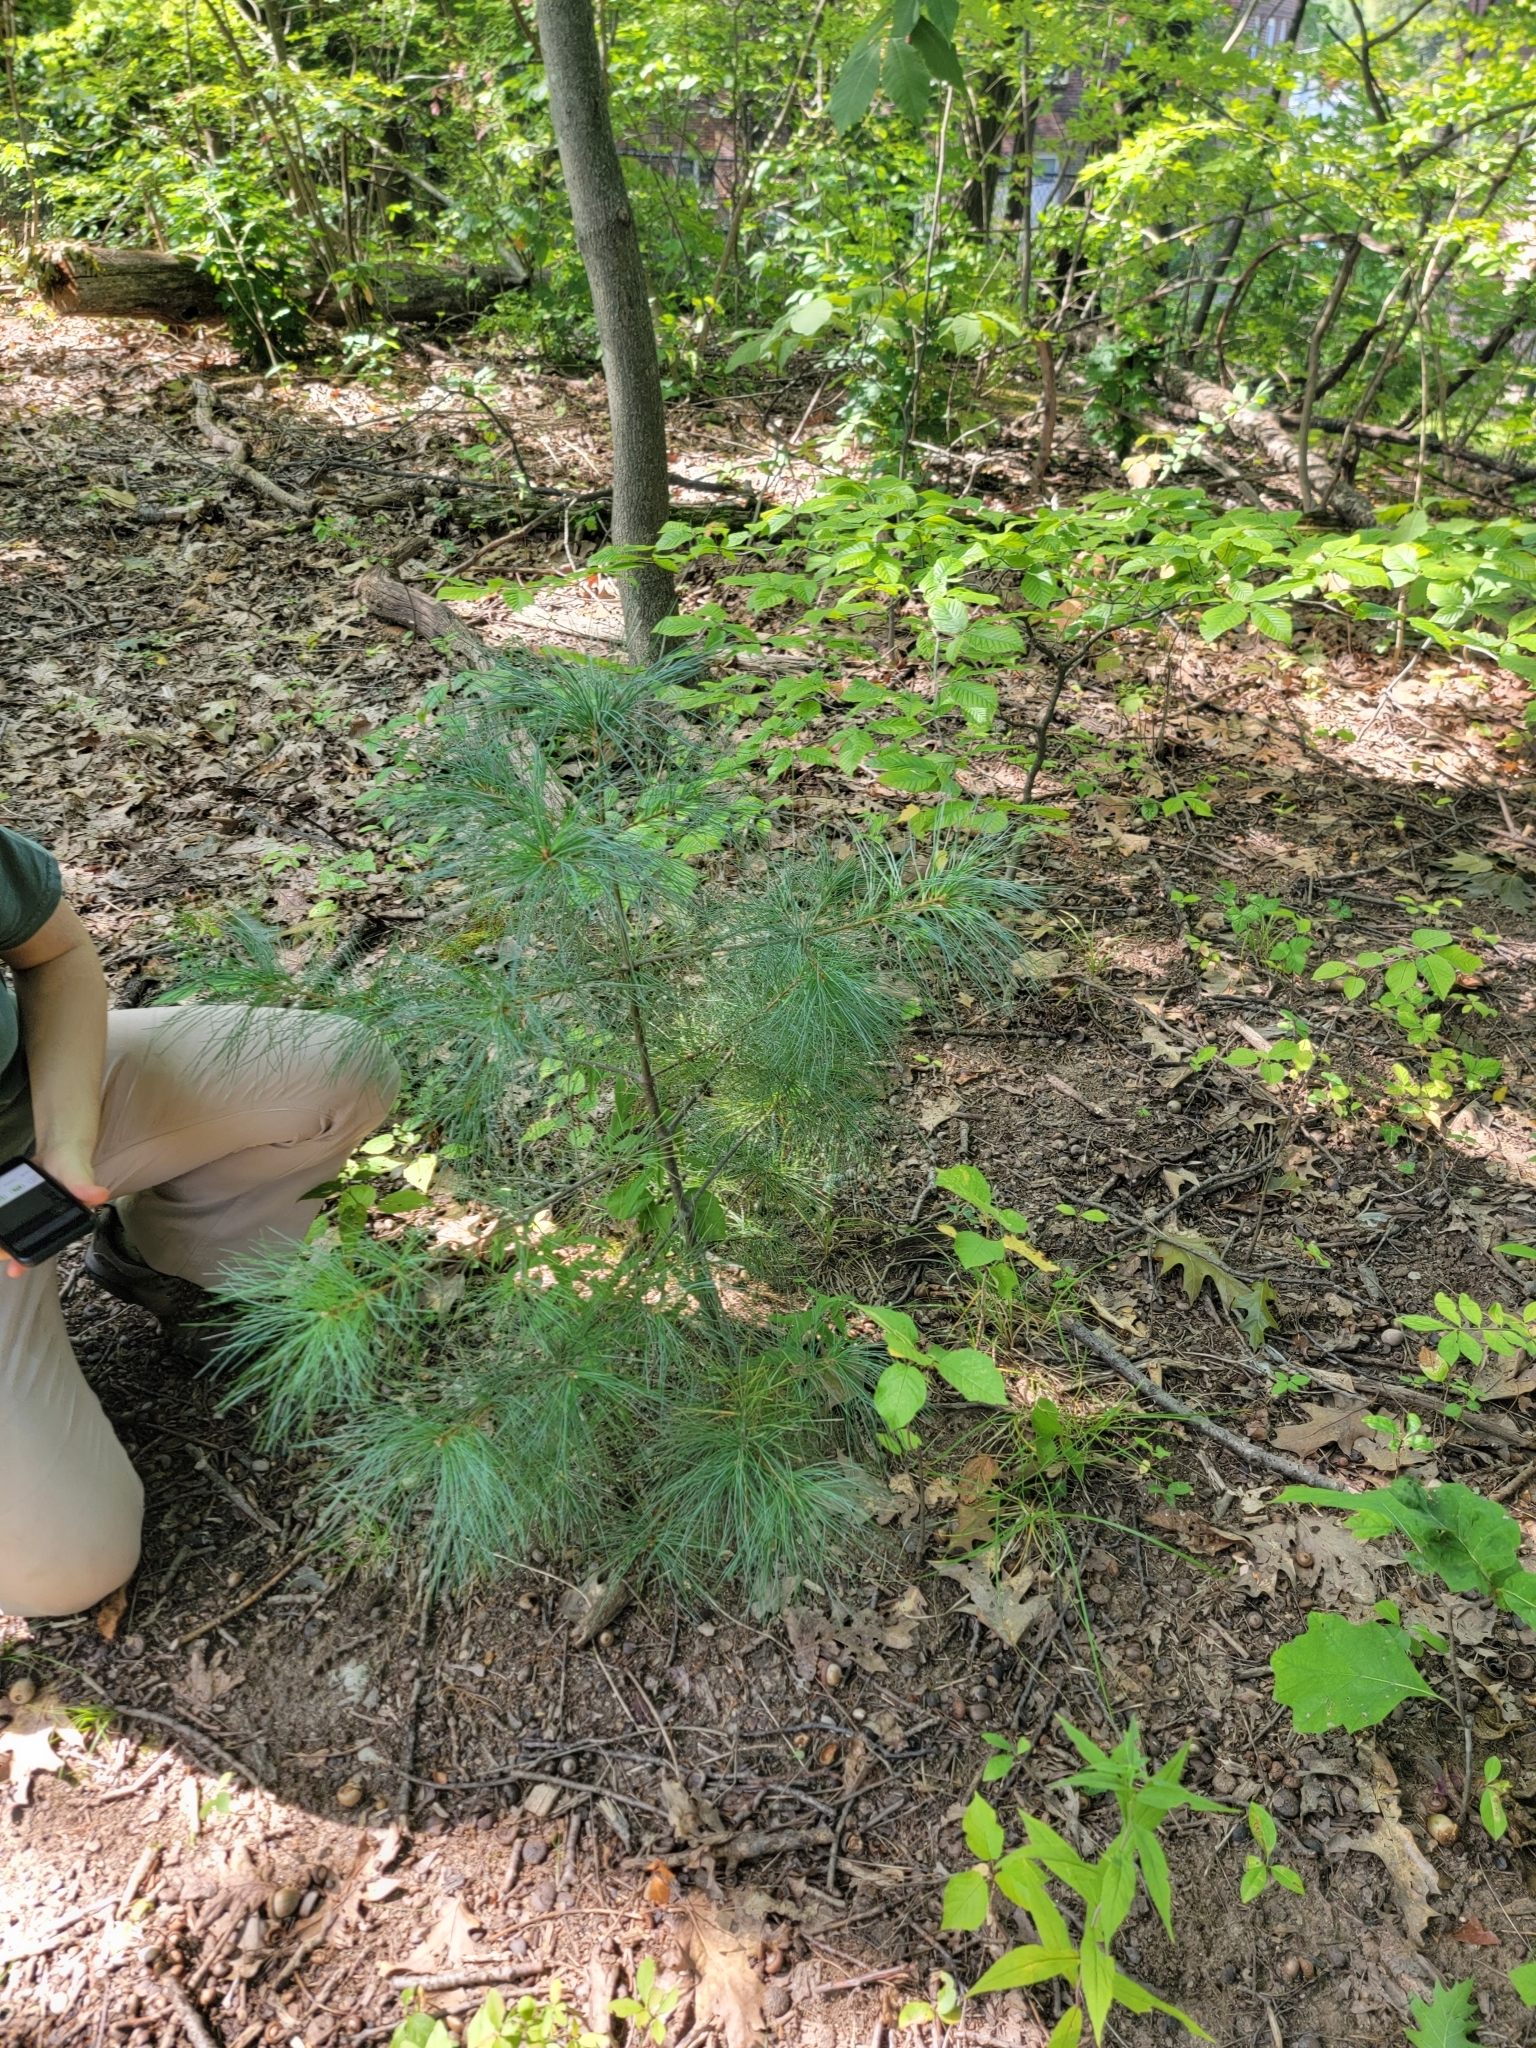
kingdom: Plantae
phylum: Tracheophyta
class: Pinopsida
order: Pinales
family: Pinaceae
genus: Pinus
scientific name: Pinus strobus
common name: Weymouth pine
